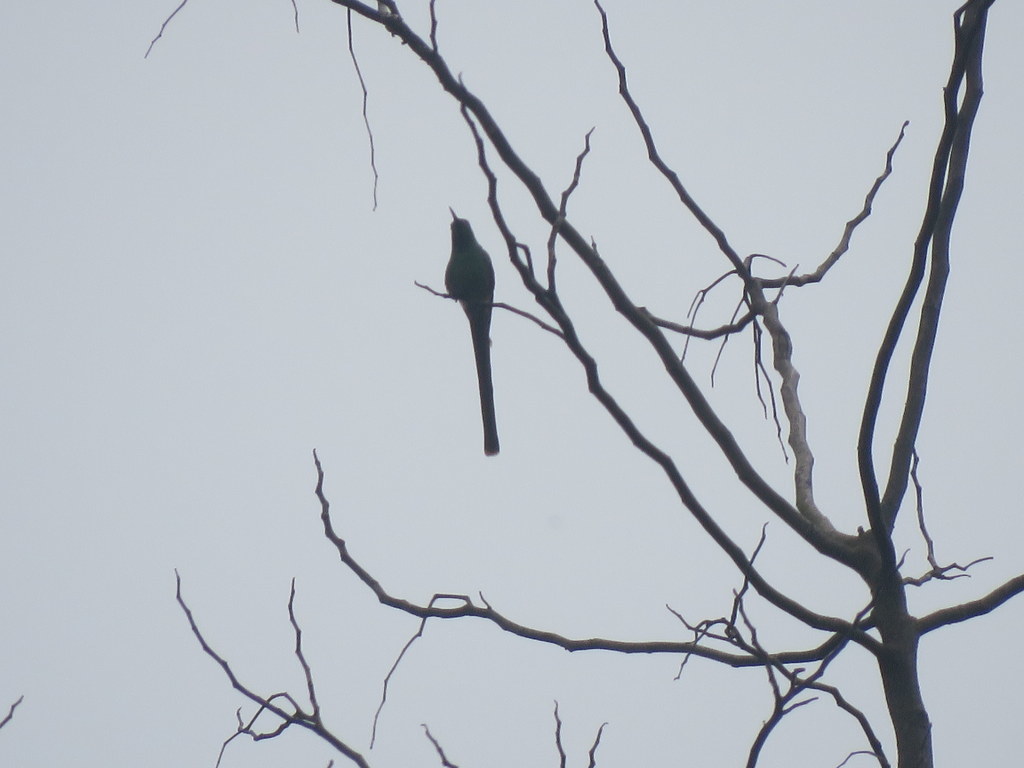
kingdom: Animalia
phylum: Chordata
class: Aves
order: Apodiformes
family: Trochilidae
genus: Sappho
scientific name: Sappho sparganurus
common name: Red-tailed comet
